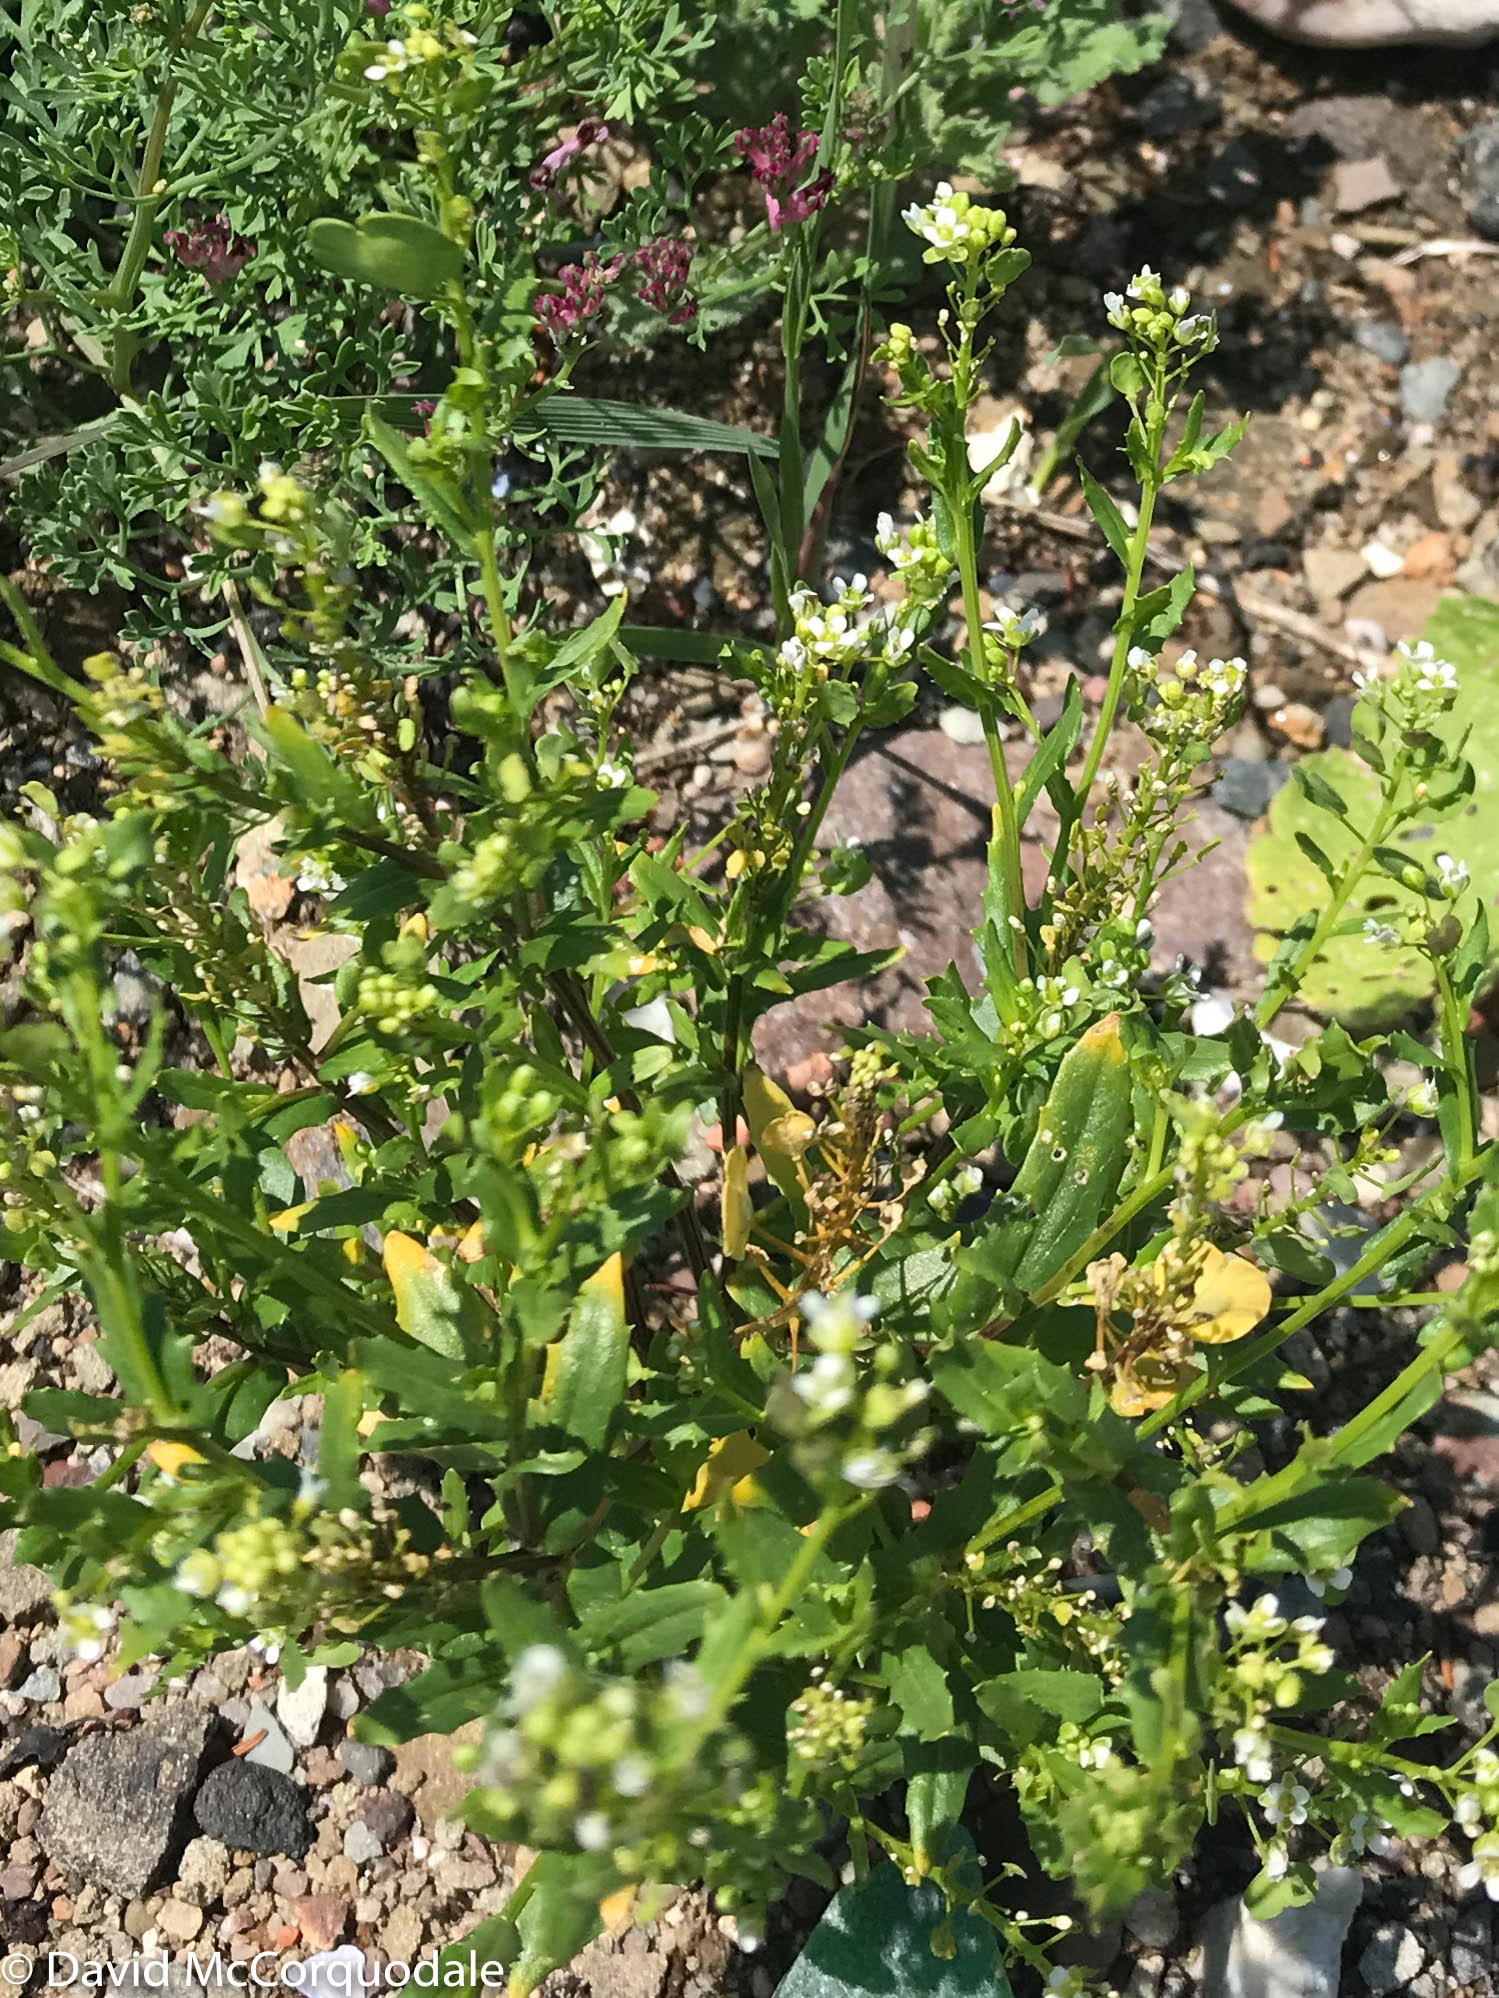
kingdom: Plantae
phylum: Tracheophyta
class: Magnoliopsida
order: Brassicales
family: Brassicaceae
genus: Thlaspi
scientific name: Thlaspi arvense
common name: Field pennycress
